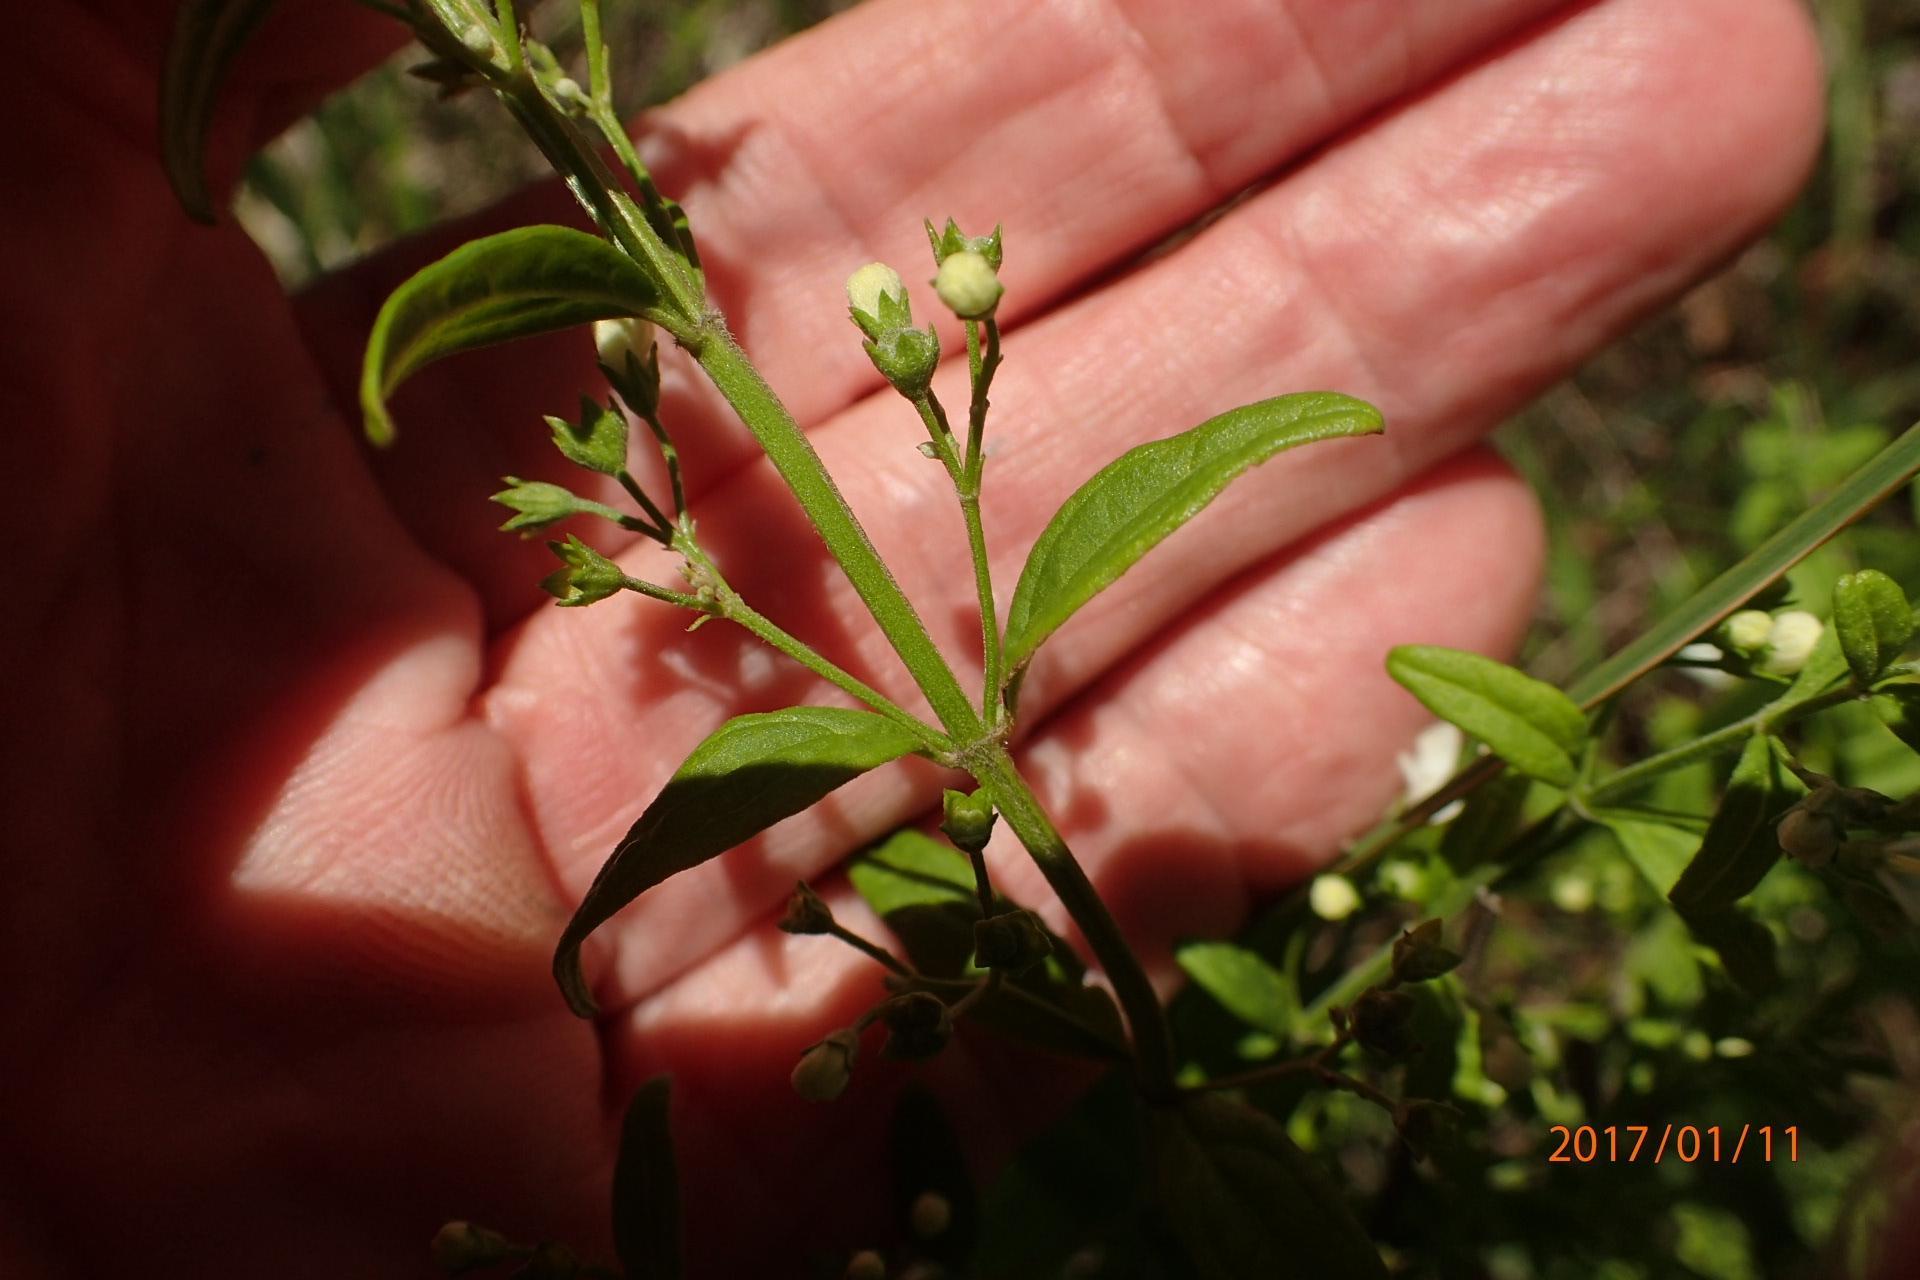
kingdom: Plantae
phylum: Tracheophyta
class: Magnoliopsida
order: Lamiales
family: Lamiaceae
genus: Teucrium
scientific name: Teucrium kraussii
